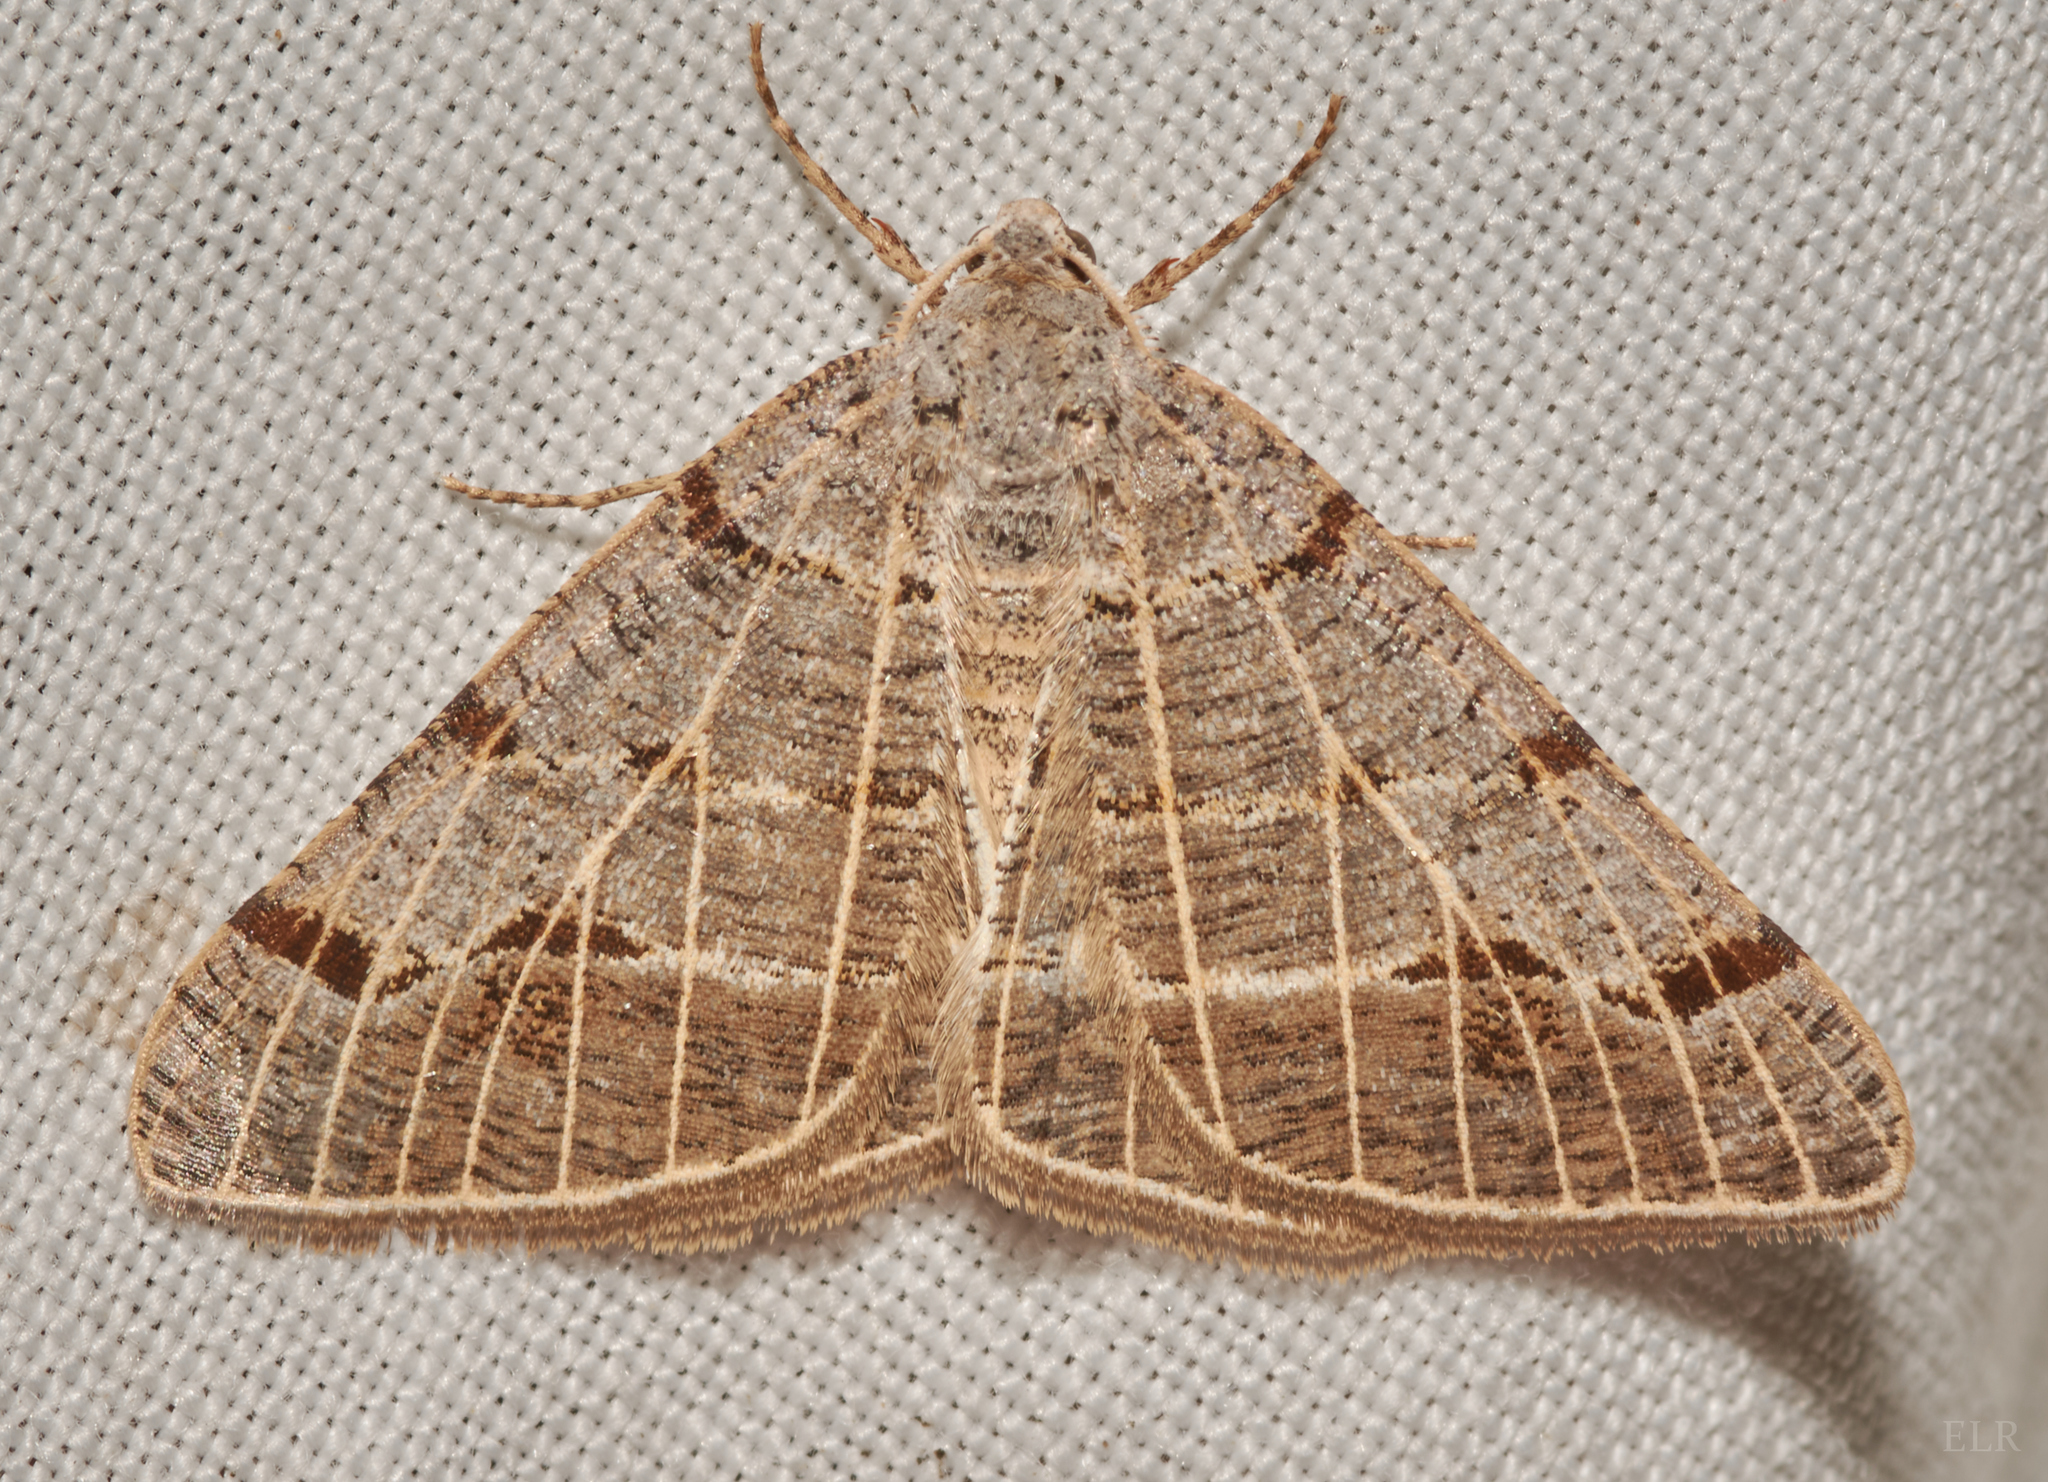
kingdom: Animalia
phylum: Arthropoda
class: Insecta
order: Lepidoptera
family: Geometridae
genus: Isturgia
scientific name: Isturgia dislocaria
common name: Pale-viened enconista
